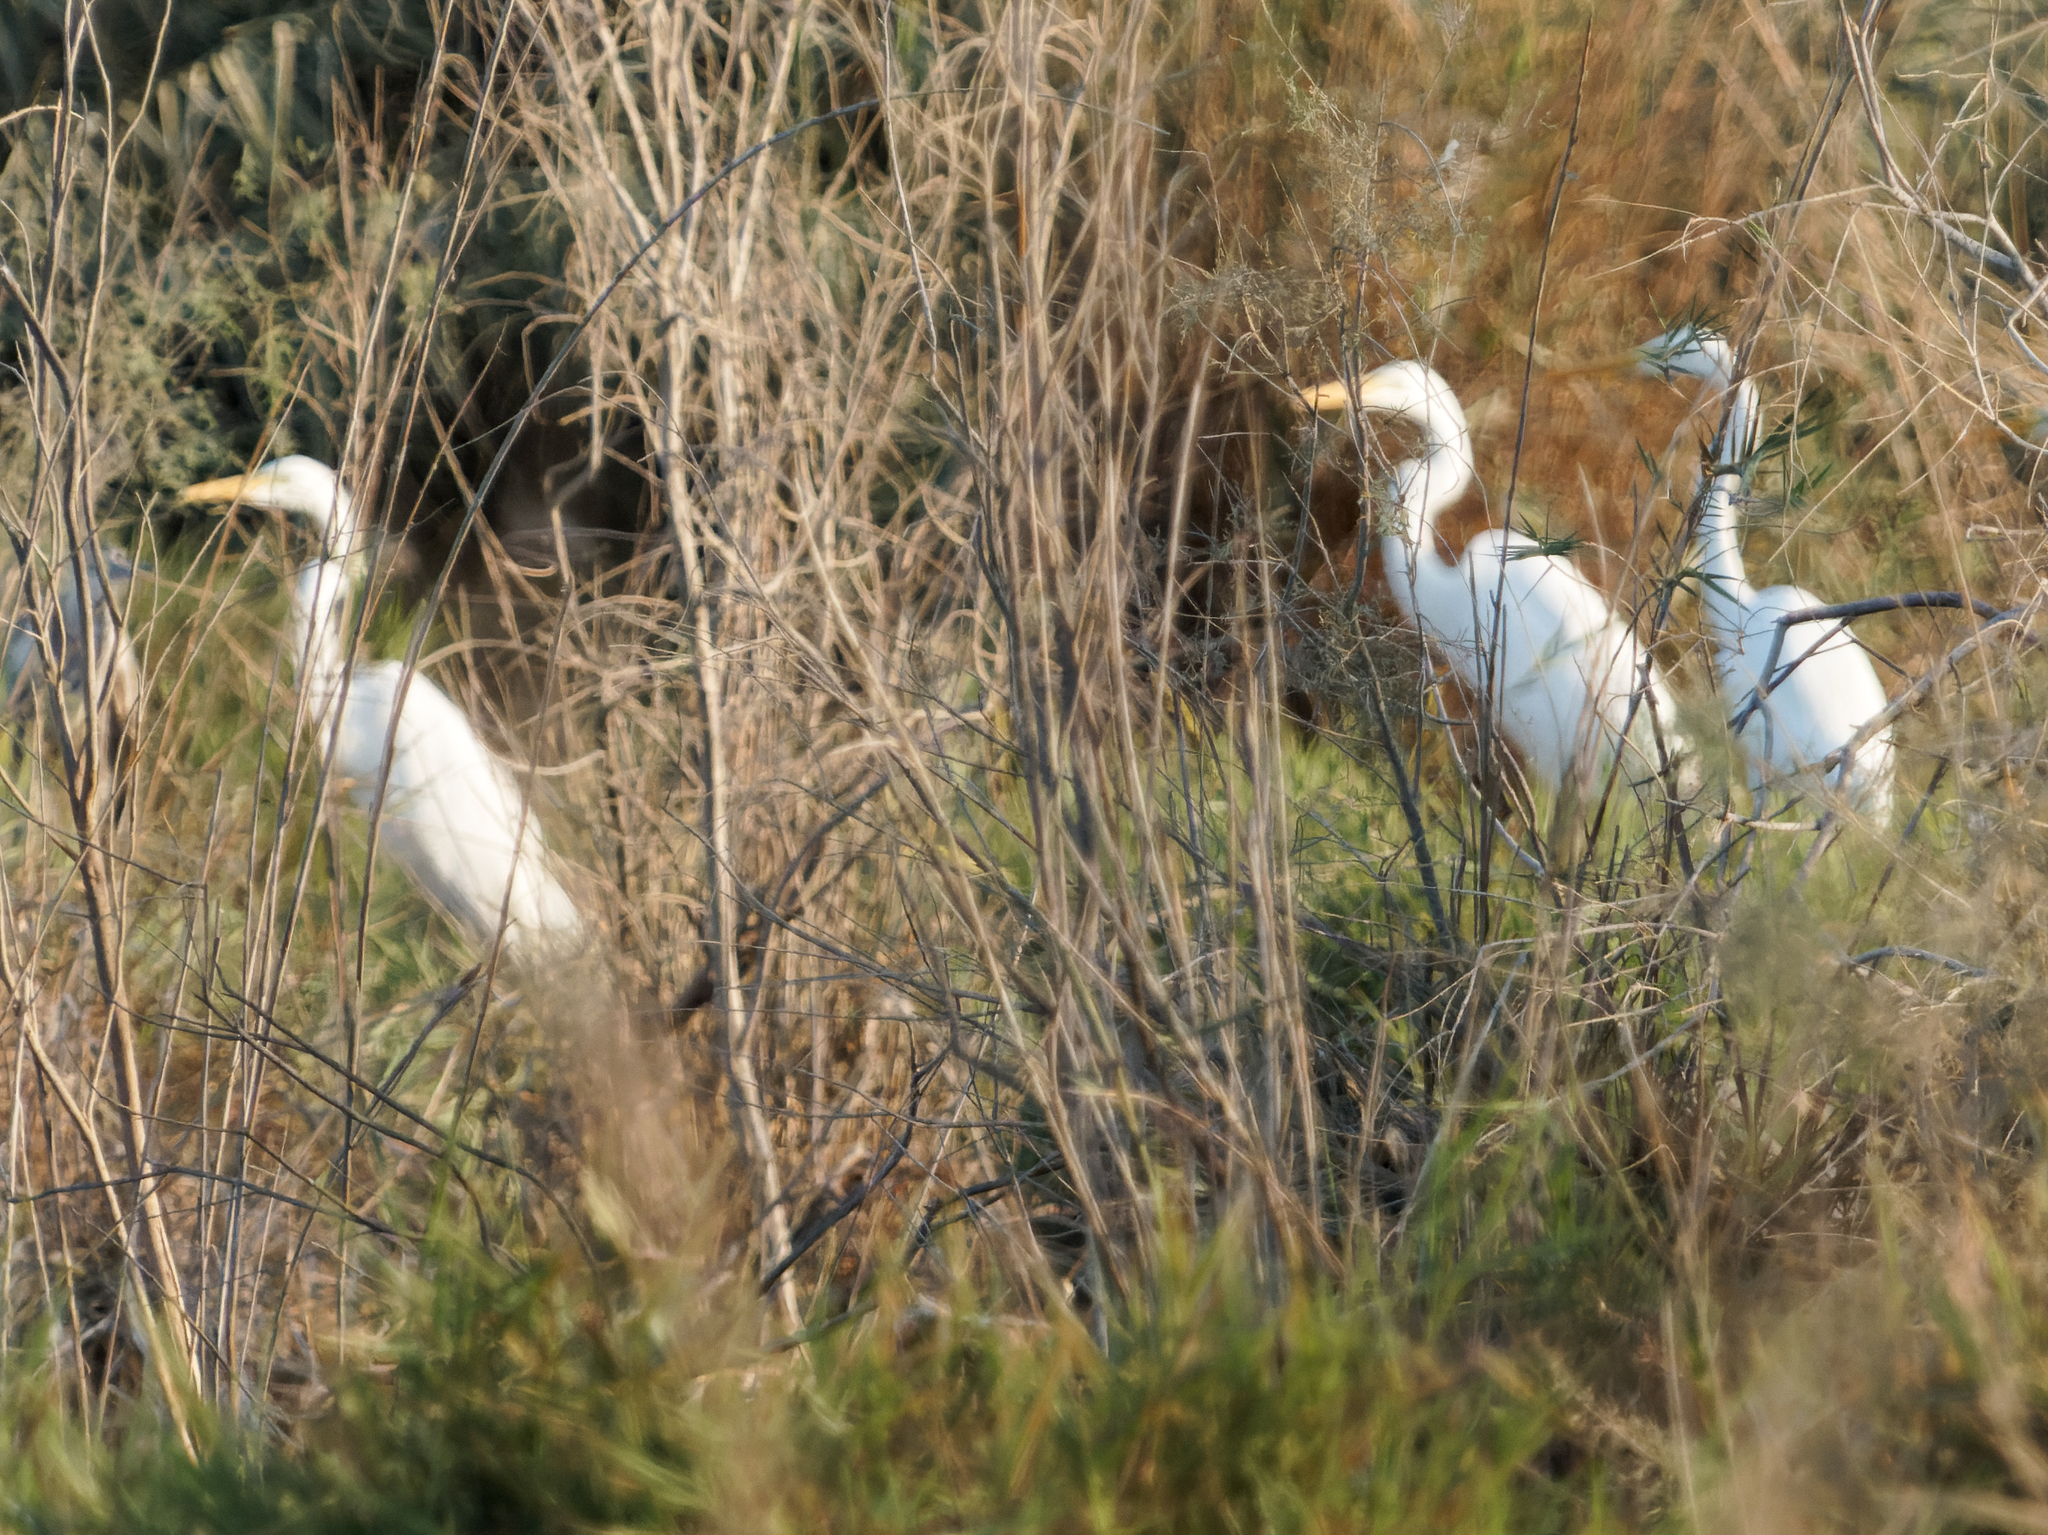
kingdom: Animalia
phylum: Chordata
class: Aves
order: Pelecaniformes
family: Ardeidae
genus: Ardea
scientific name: Ardea alba
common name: Great egret
